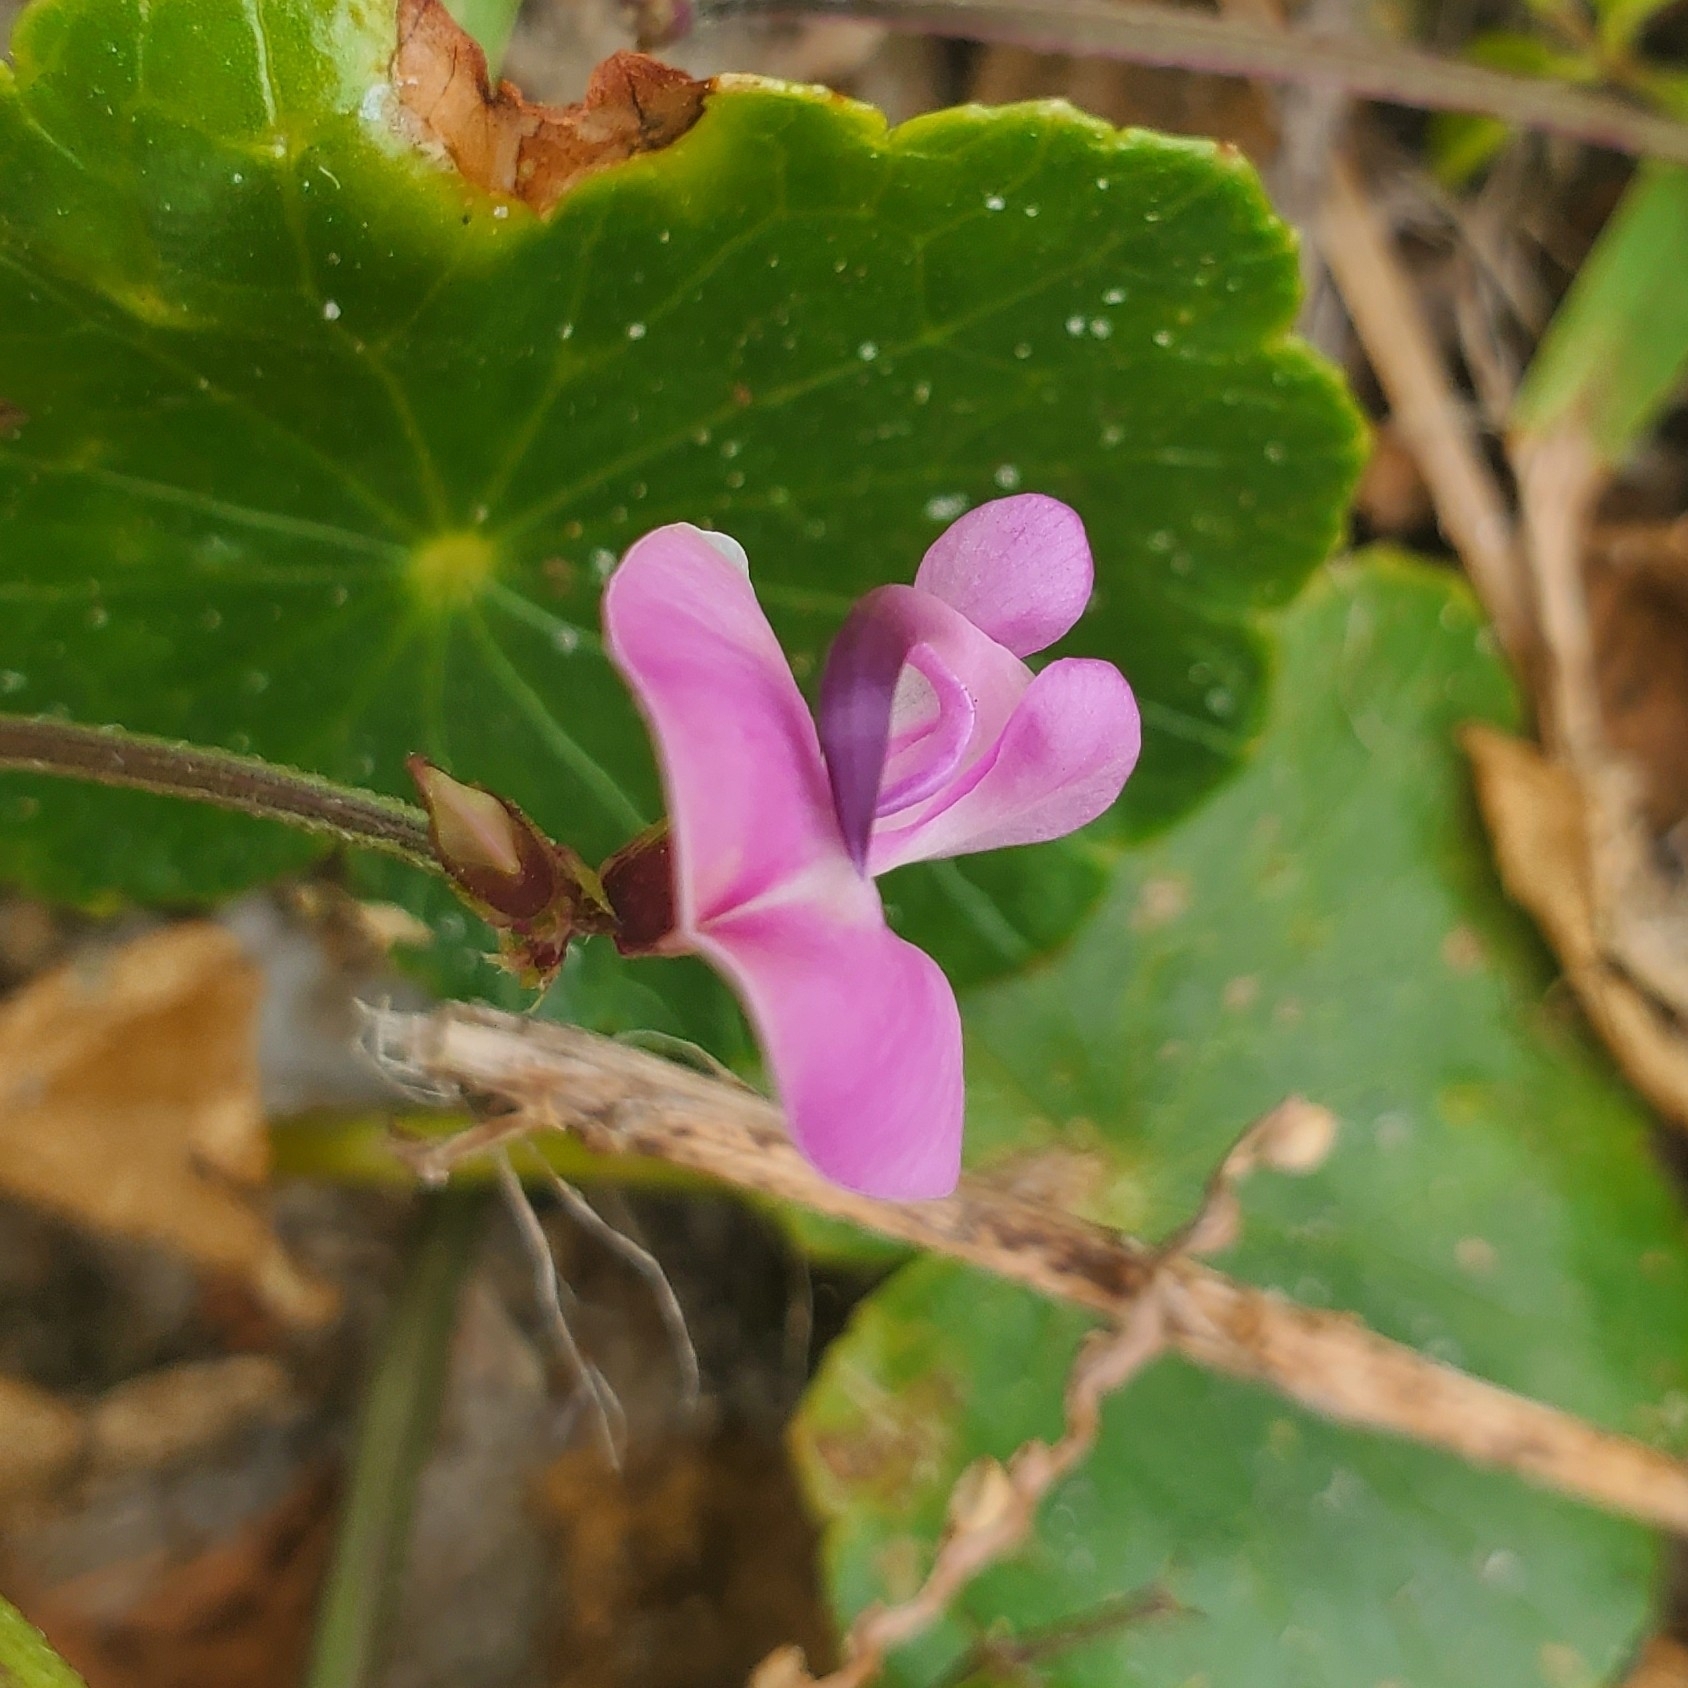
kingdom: Plantae
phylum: Tracheophyta
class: Magnoliopsida
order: Fabales
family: Fabaceae
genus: Strophostyles
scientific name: Strophostyles helvola
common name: Trailing wild bean
